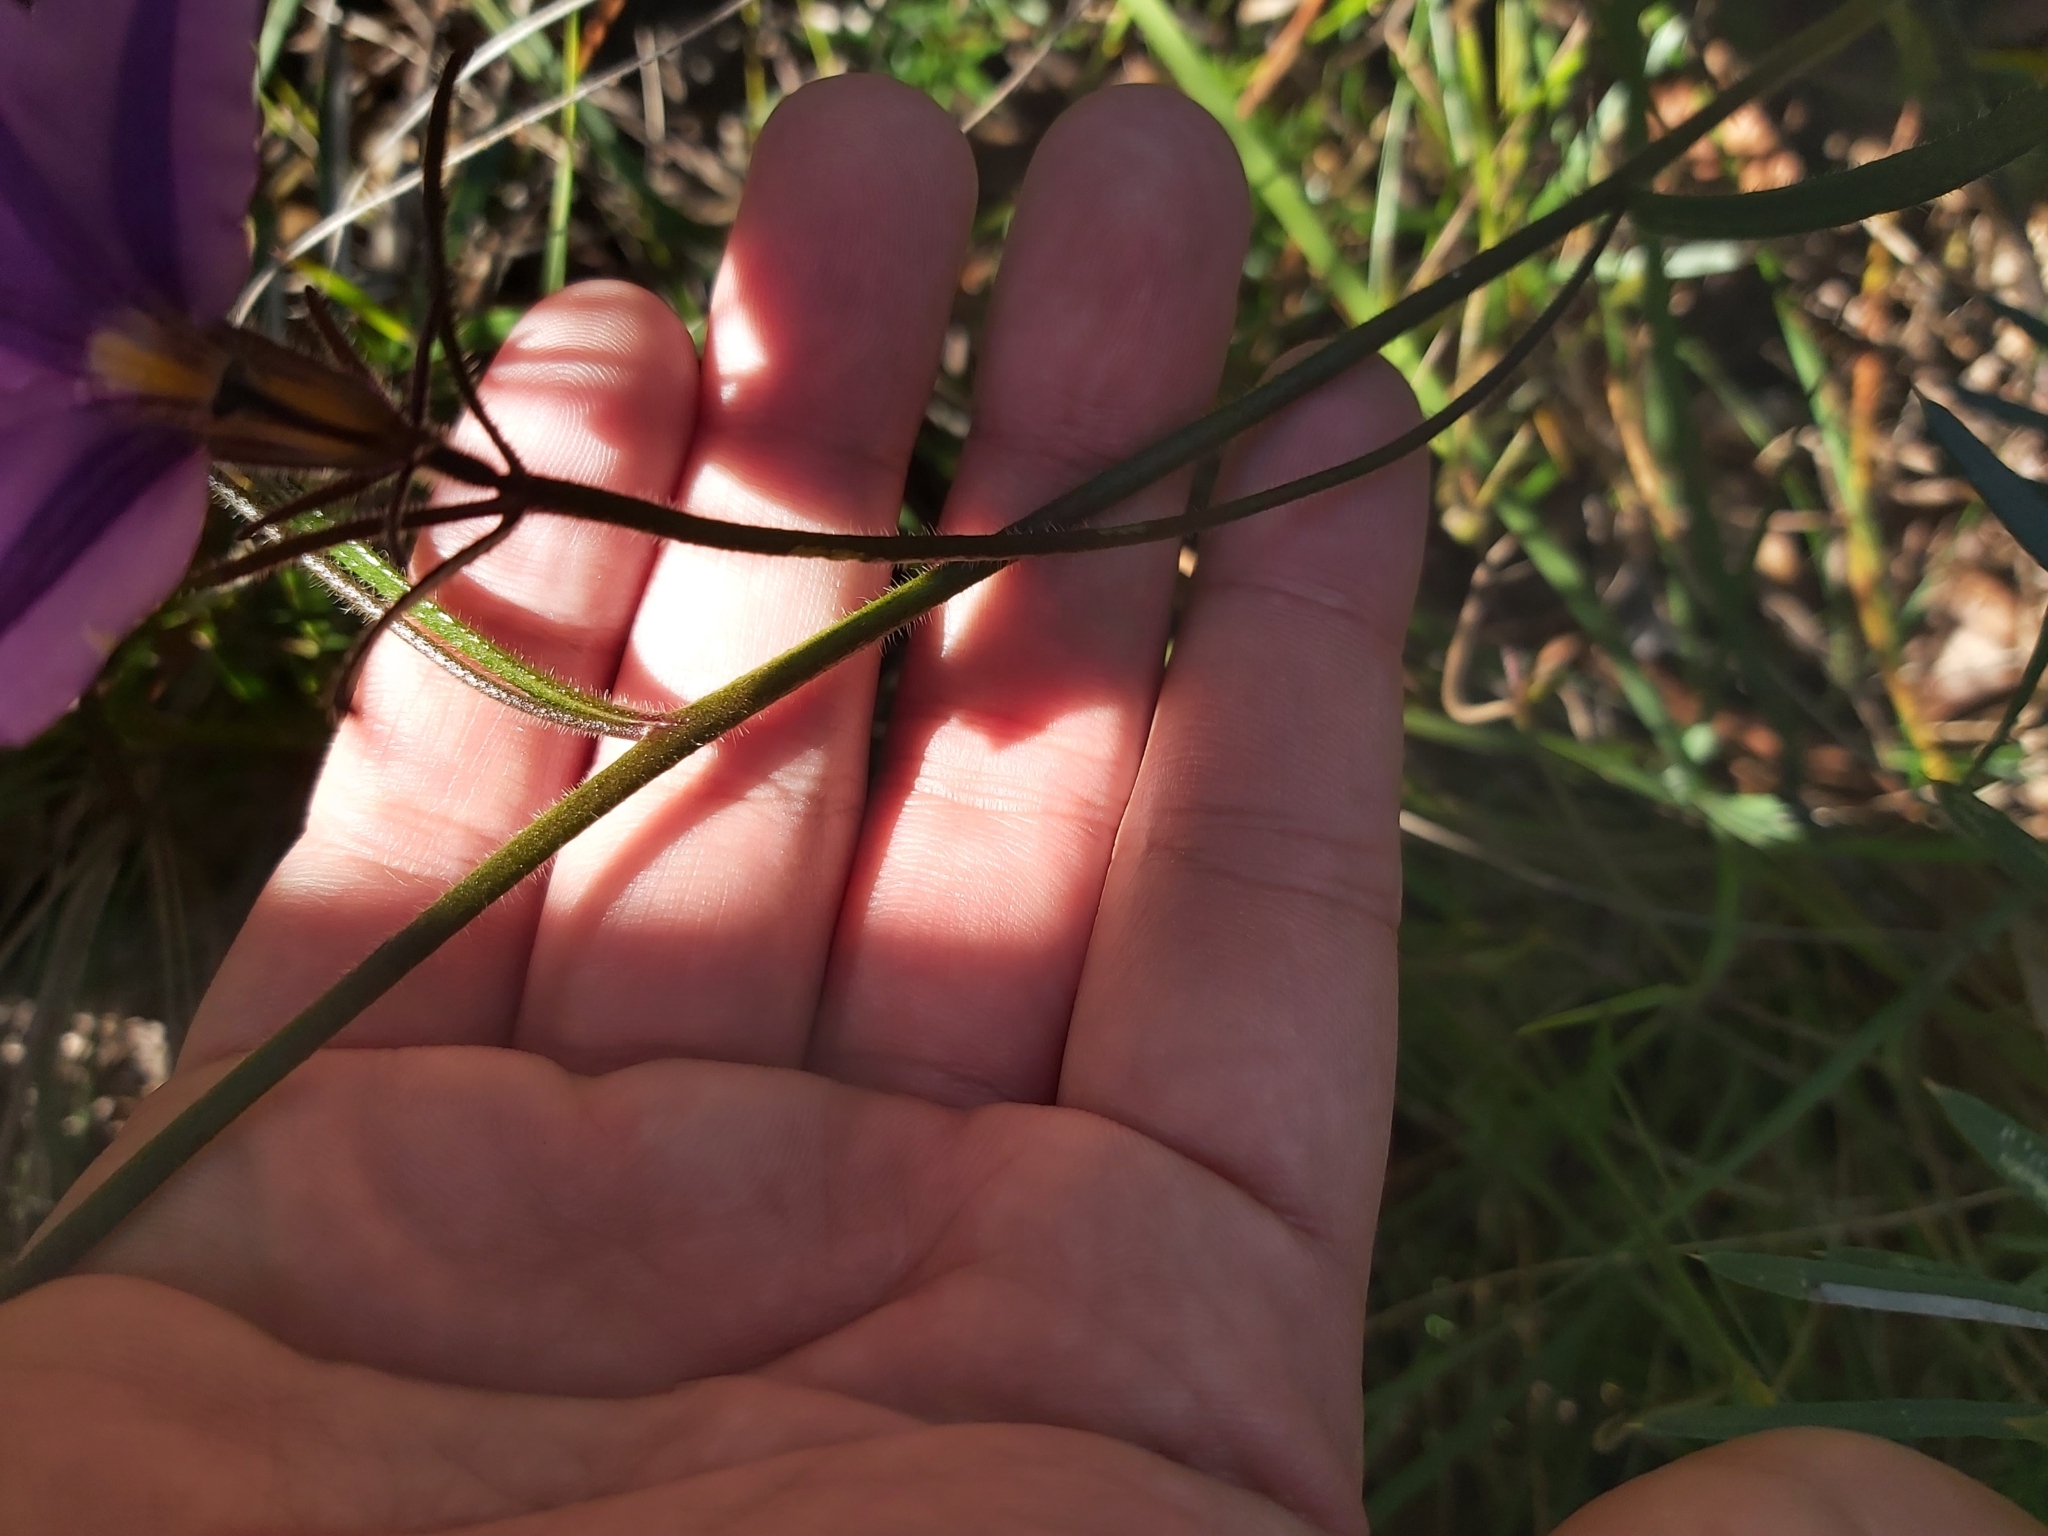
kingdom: Plantae
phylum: Tracheophyta
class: Magnoliopsida
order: Asterales
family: Goodeniaceae
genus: Scaevola
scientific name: Scaevola ramosissima
